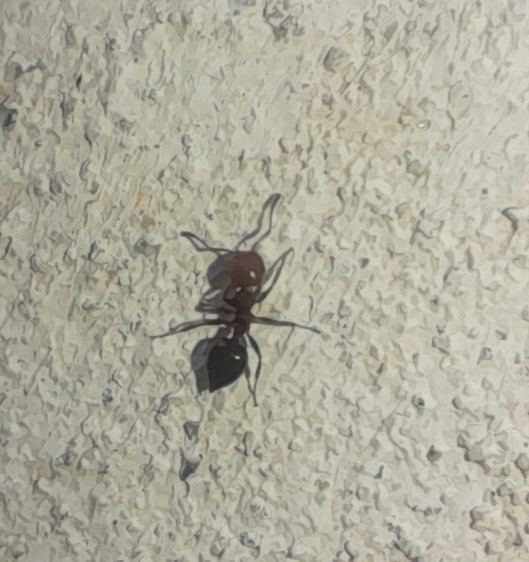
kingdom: Animalia
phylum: Arthropoda
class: Insecta
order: Hymenoptera
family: Formicidae
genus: Crematogaster
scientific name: Crematogaster scutellaris
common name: Fourmi du liège
